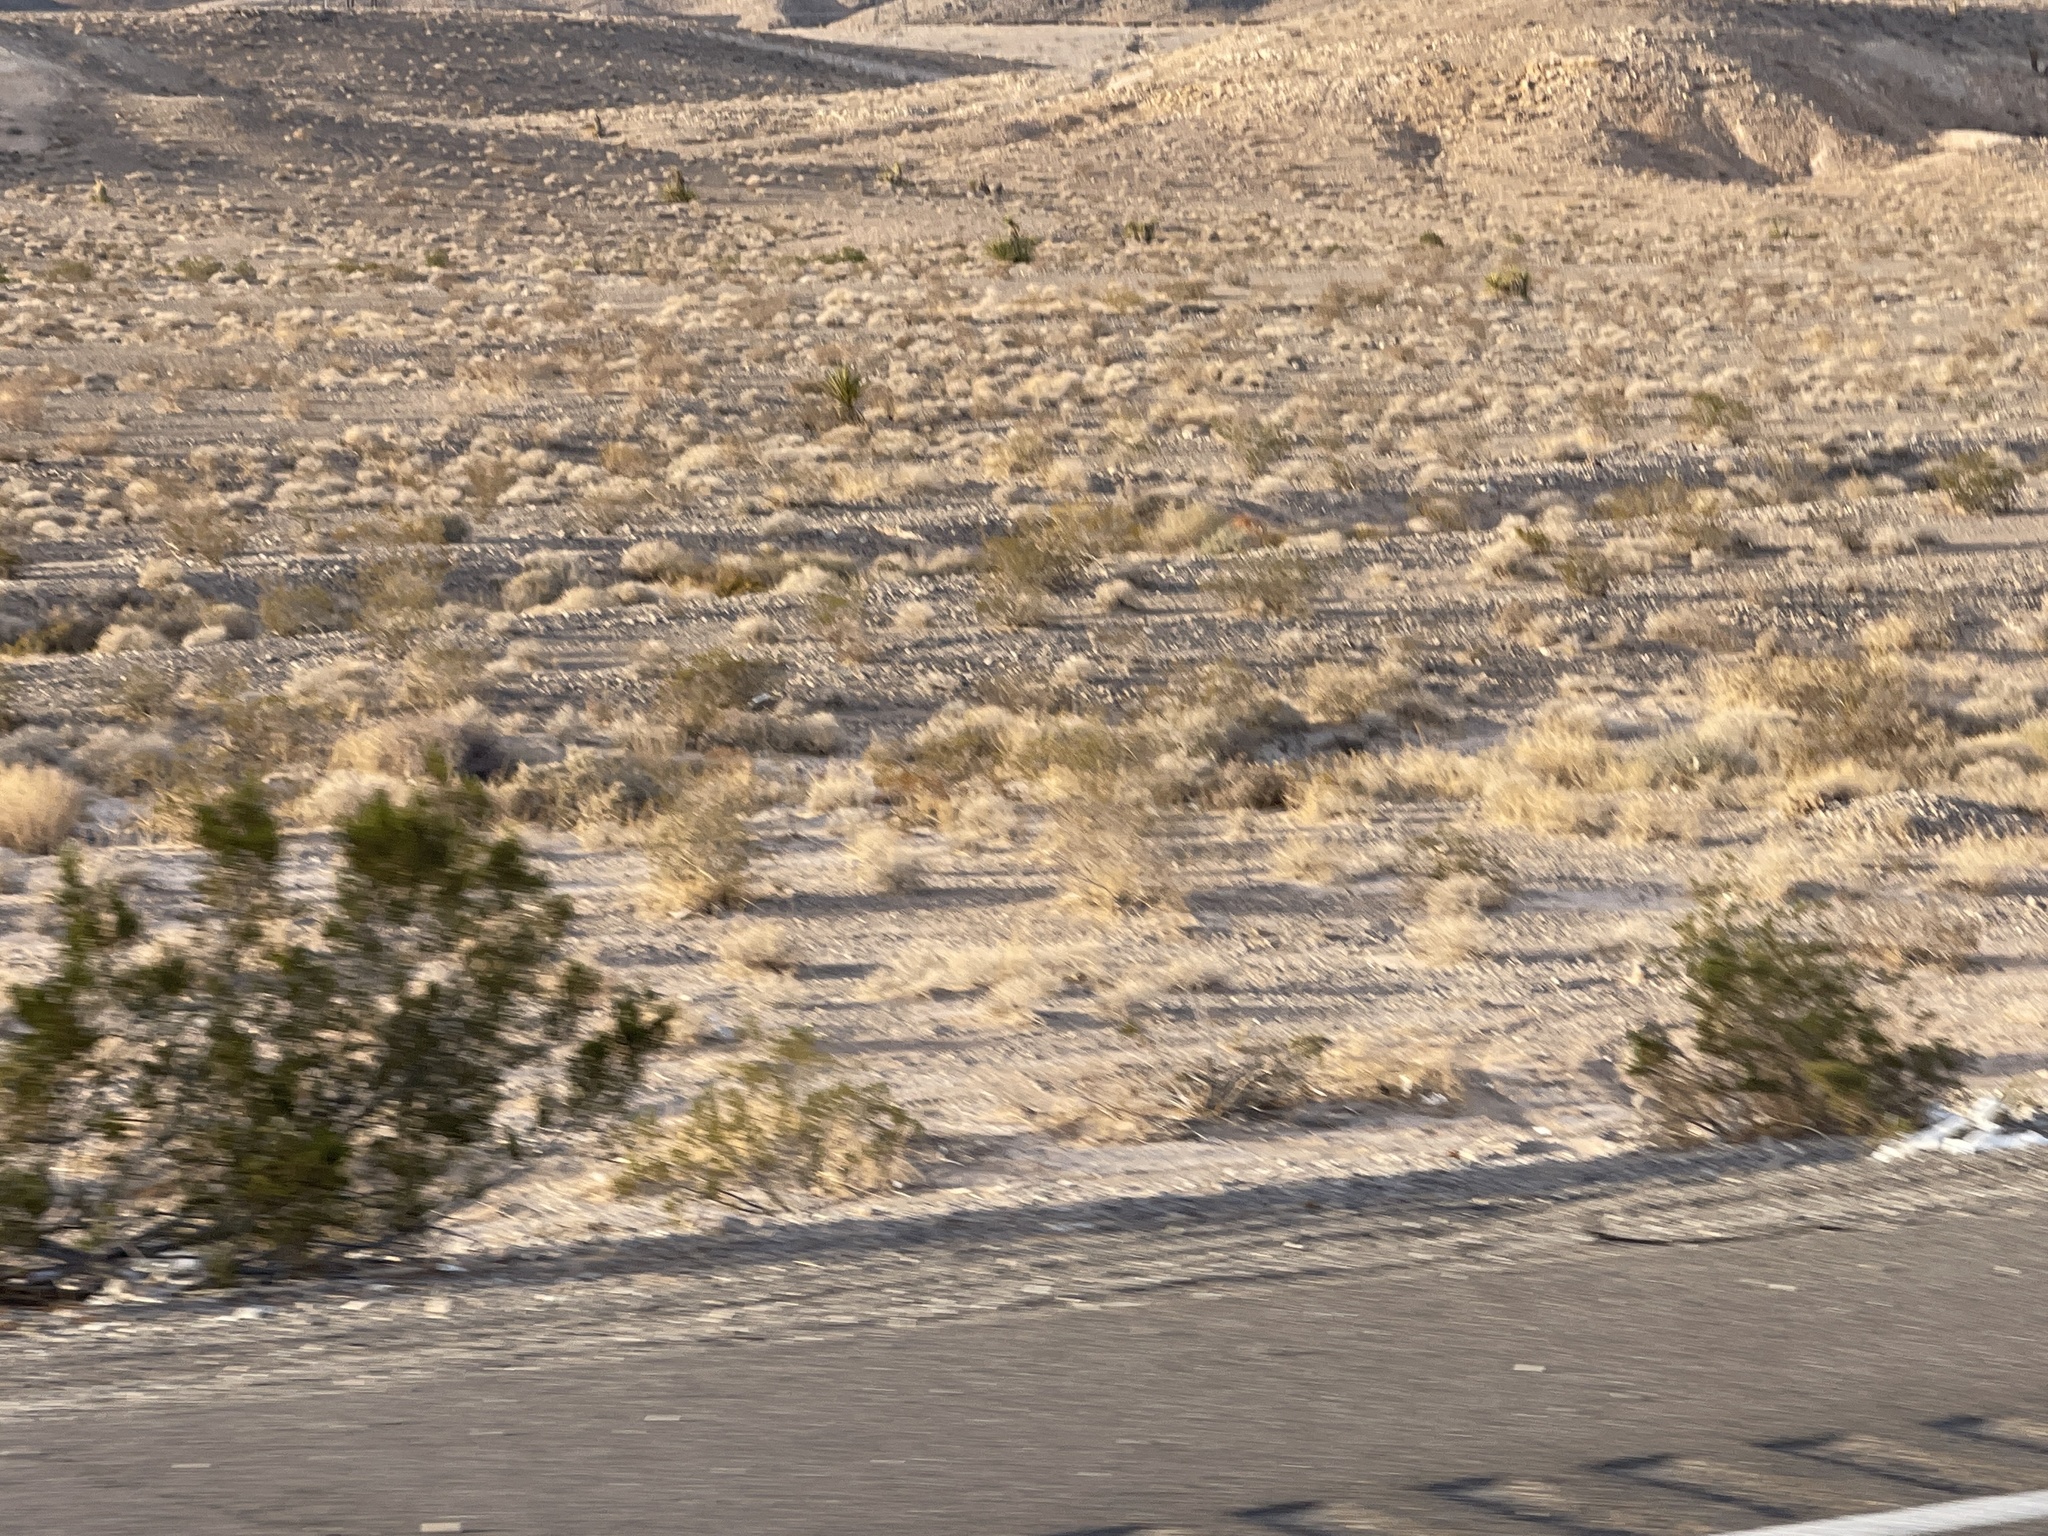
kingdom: Plantae
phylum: Tracheophyta
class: Magnoliopsida
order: Zygophyllales
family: Zygophyllaceae
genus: Larrea
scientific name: Larrea tridentata
